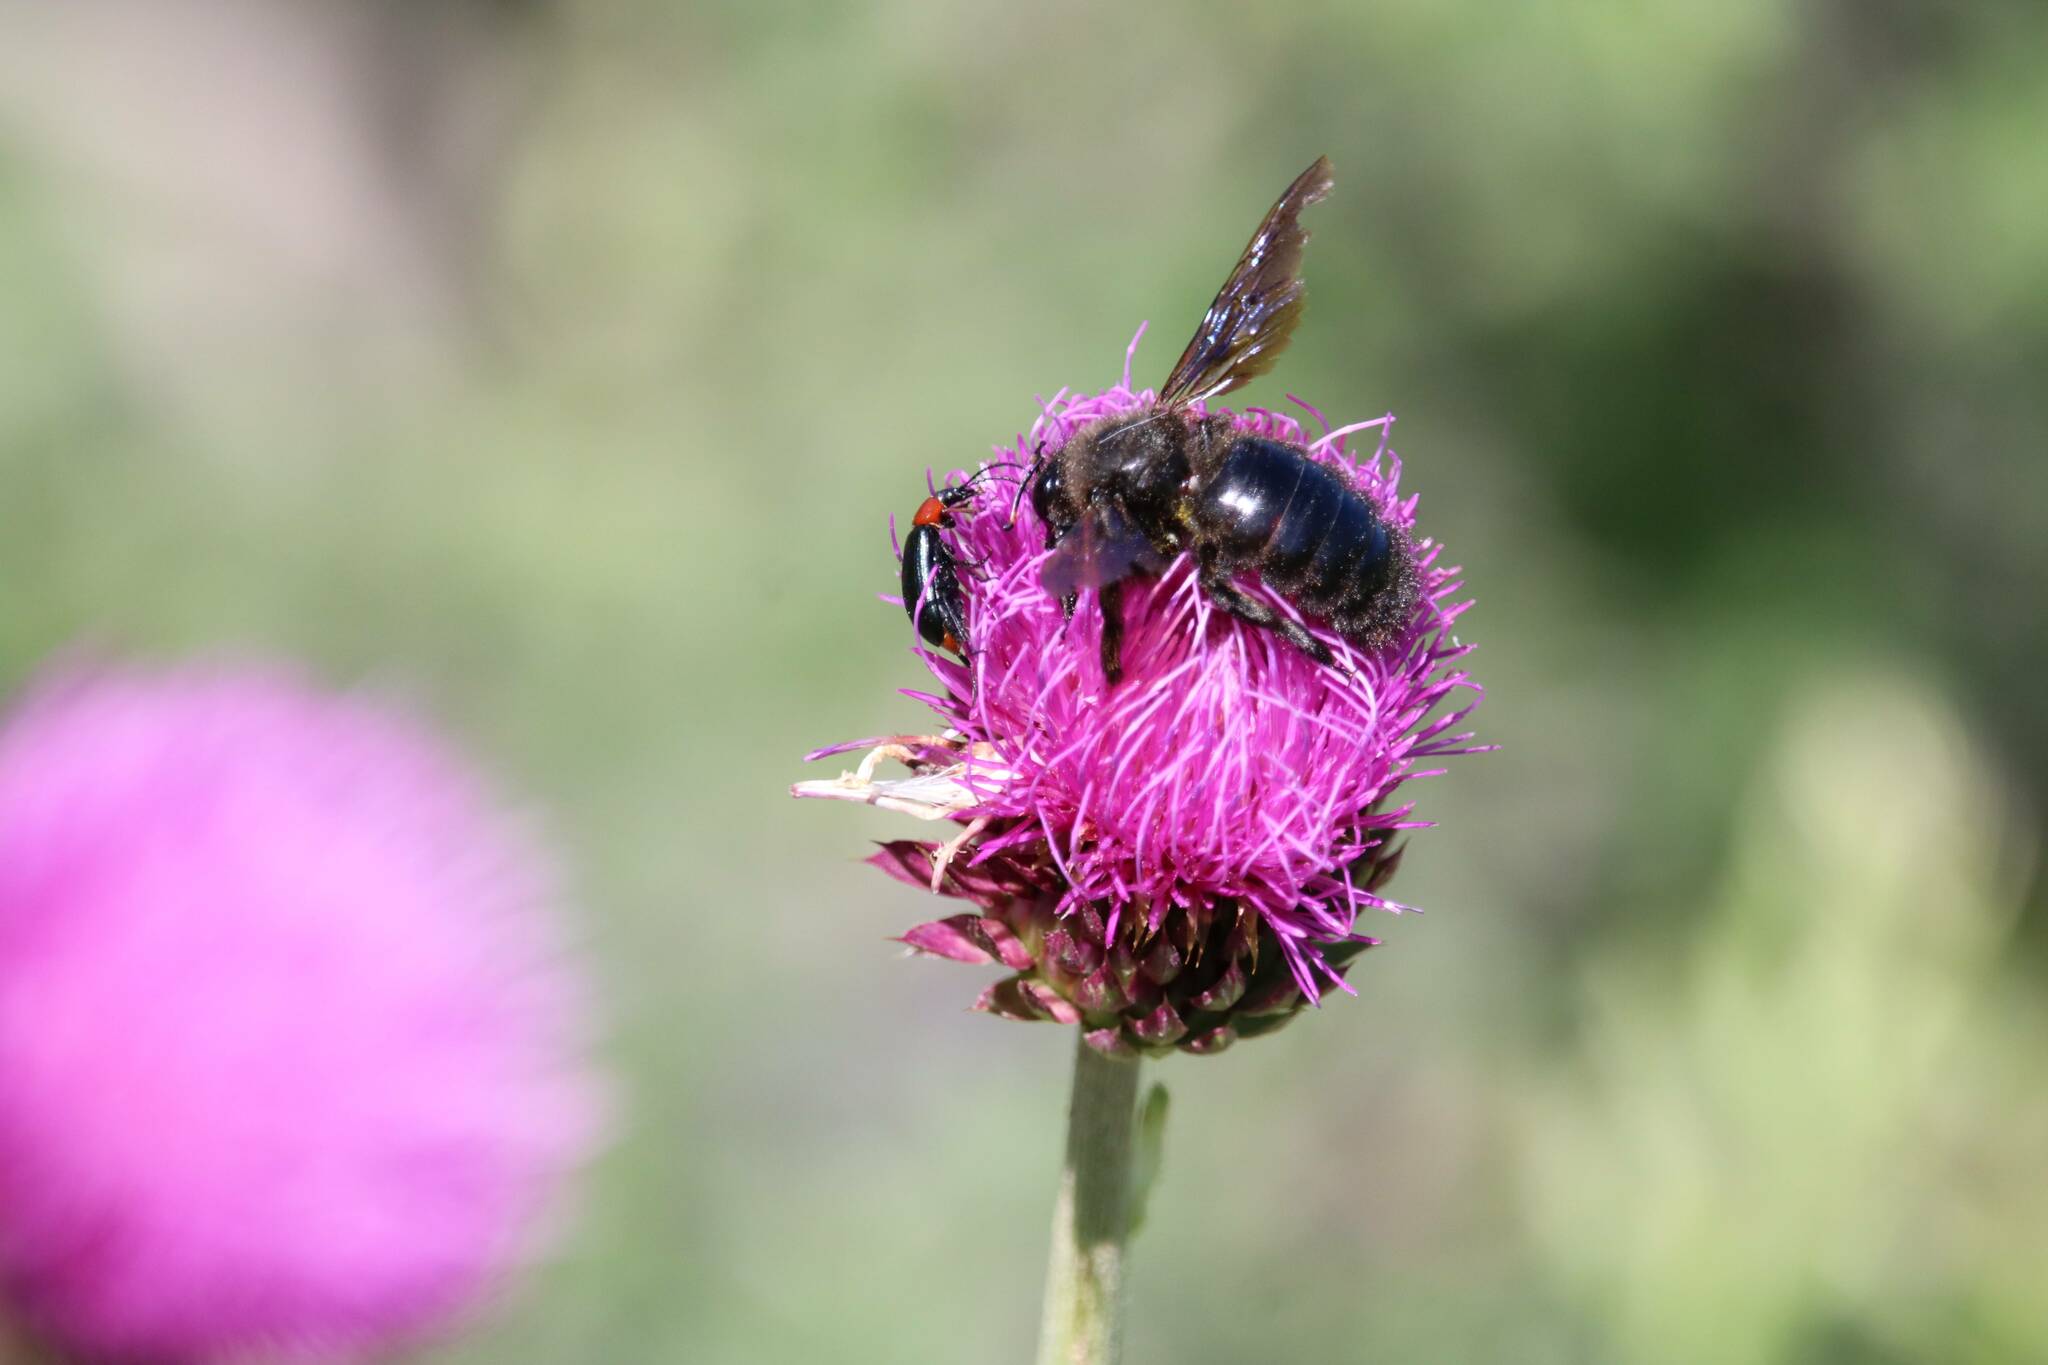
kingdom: Animalia
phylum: Arthropoda
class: Insecta
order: Hymenoptera
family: Apidae
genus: Xylocopa
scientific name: Xylocopa violacea
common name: Violet carpenter bee
